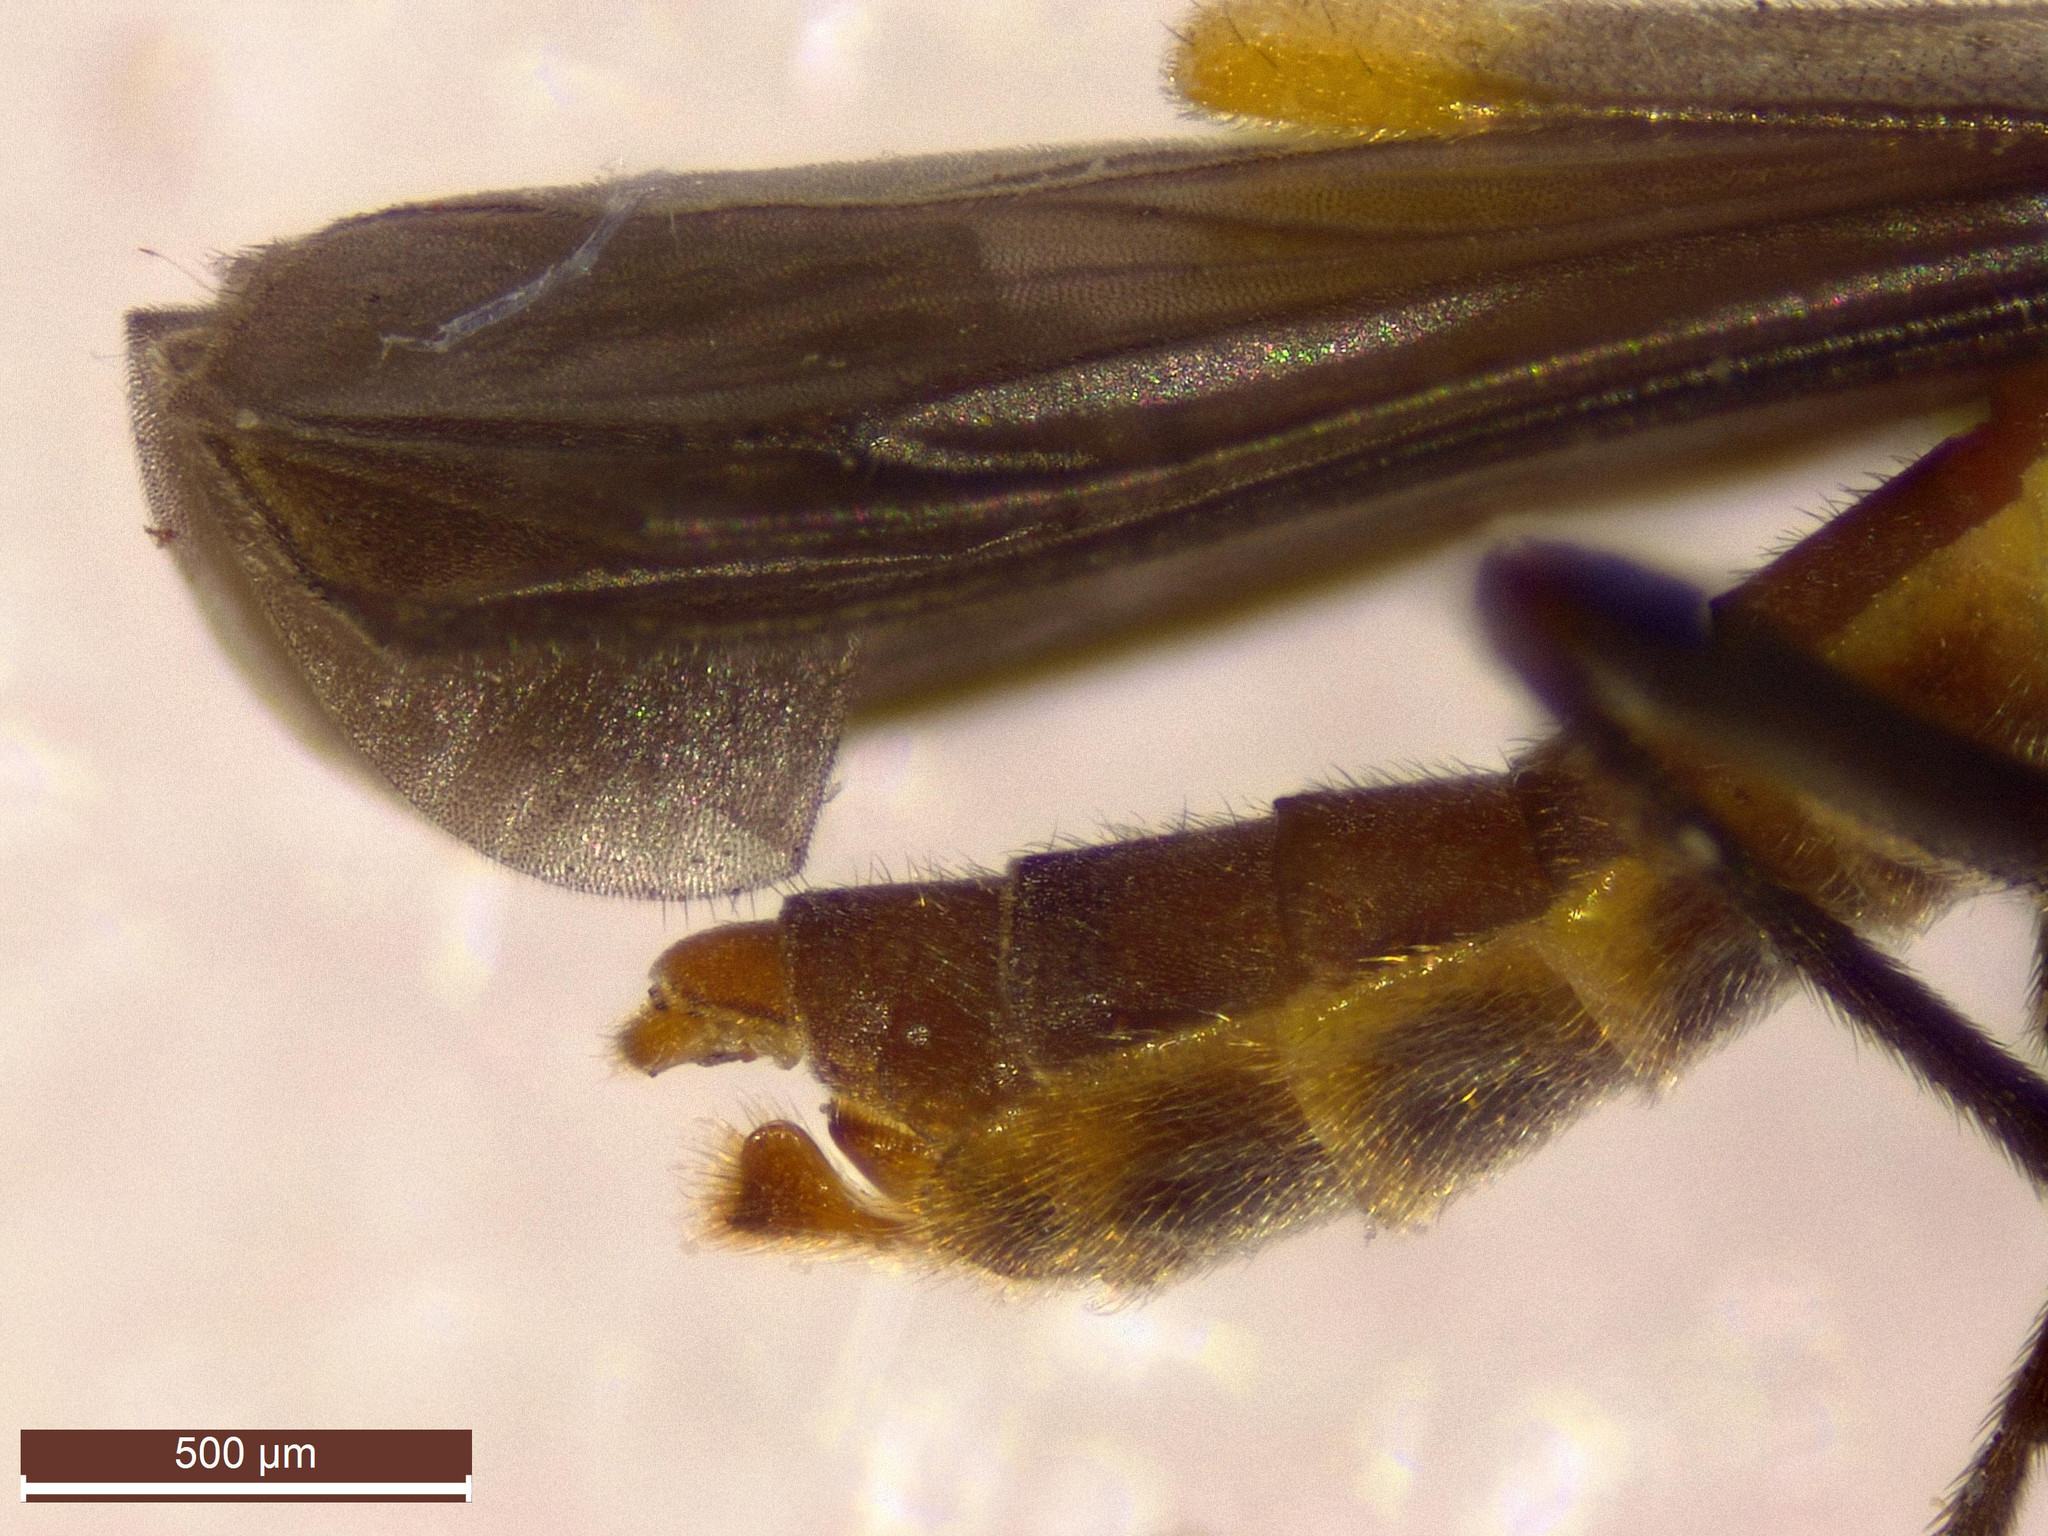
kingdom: Animalia
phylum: Arthropoda
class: Insecta
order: Coleoptera
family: Cantharidae
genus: Malthodes
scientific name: Malthodes marginatus
